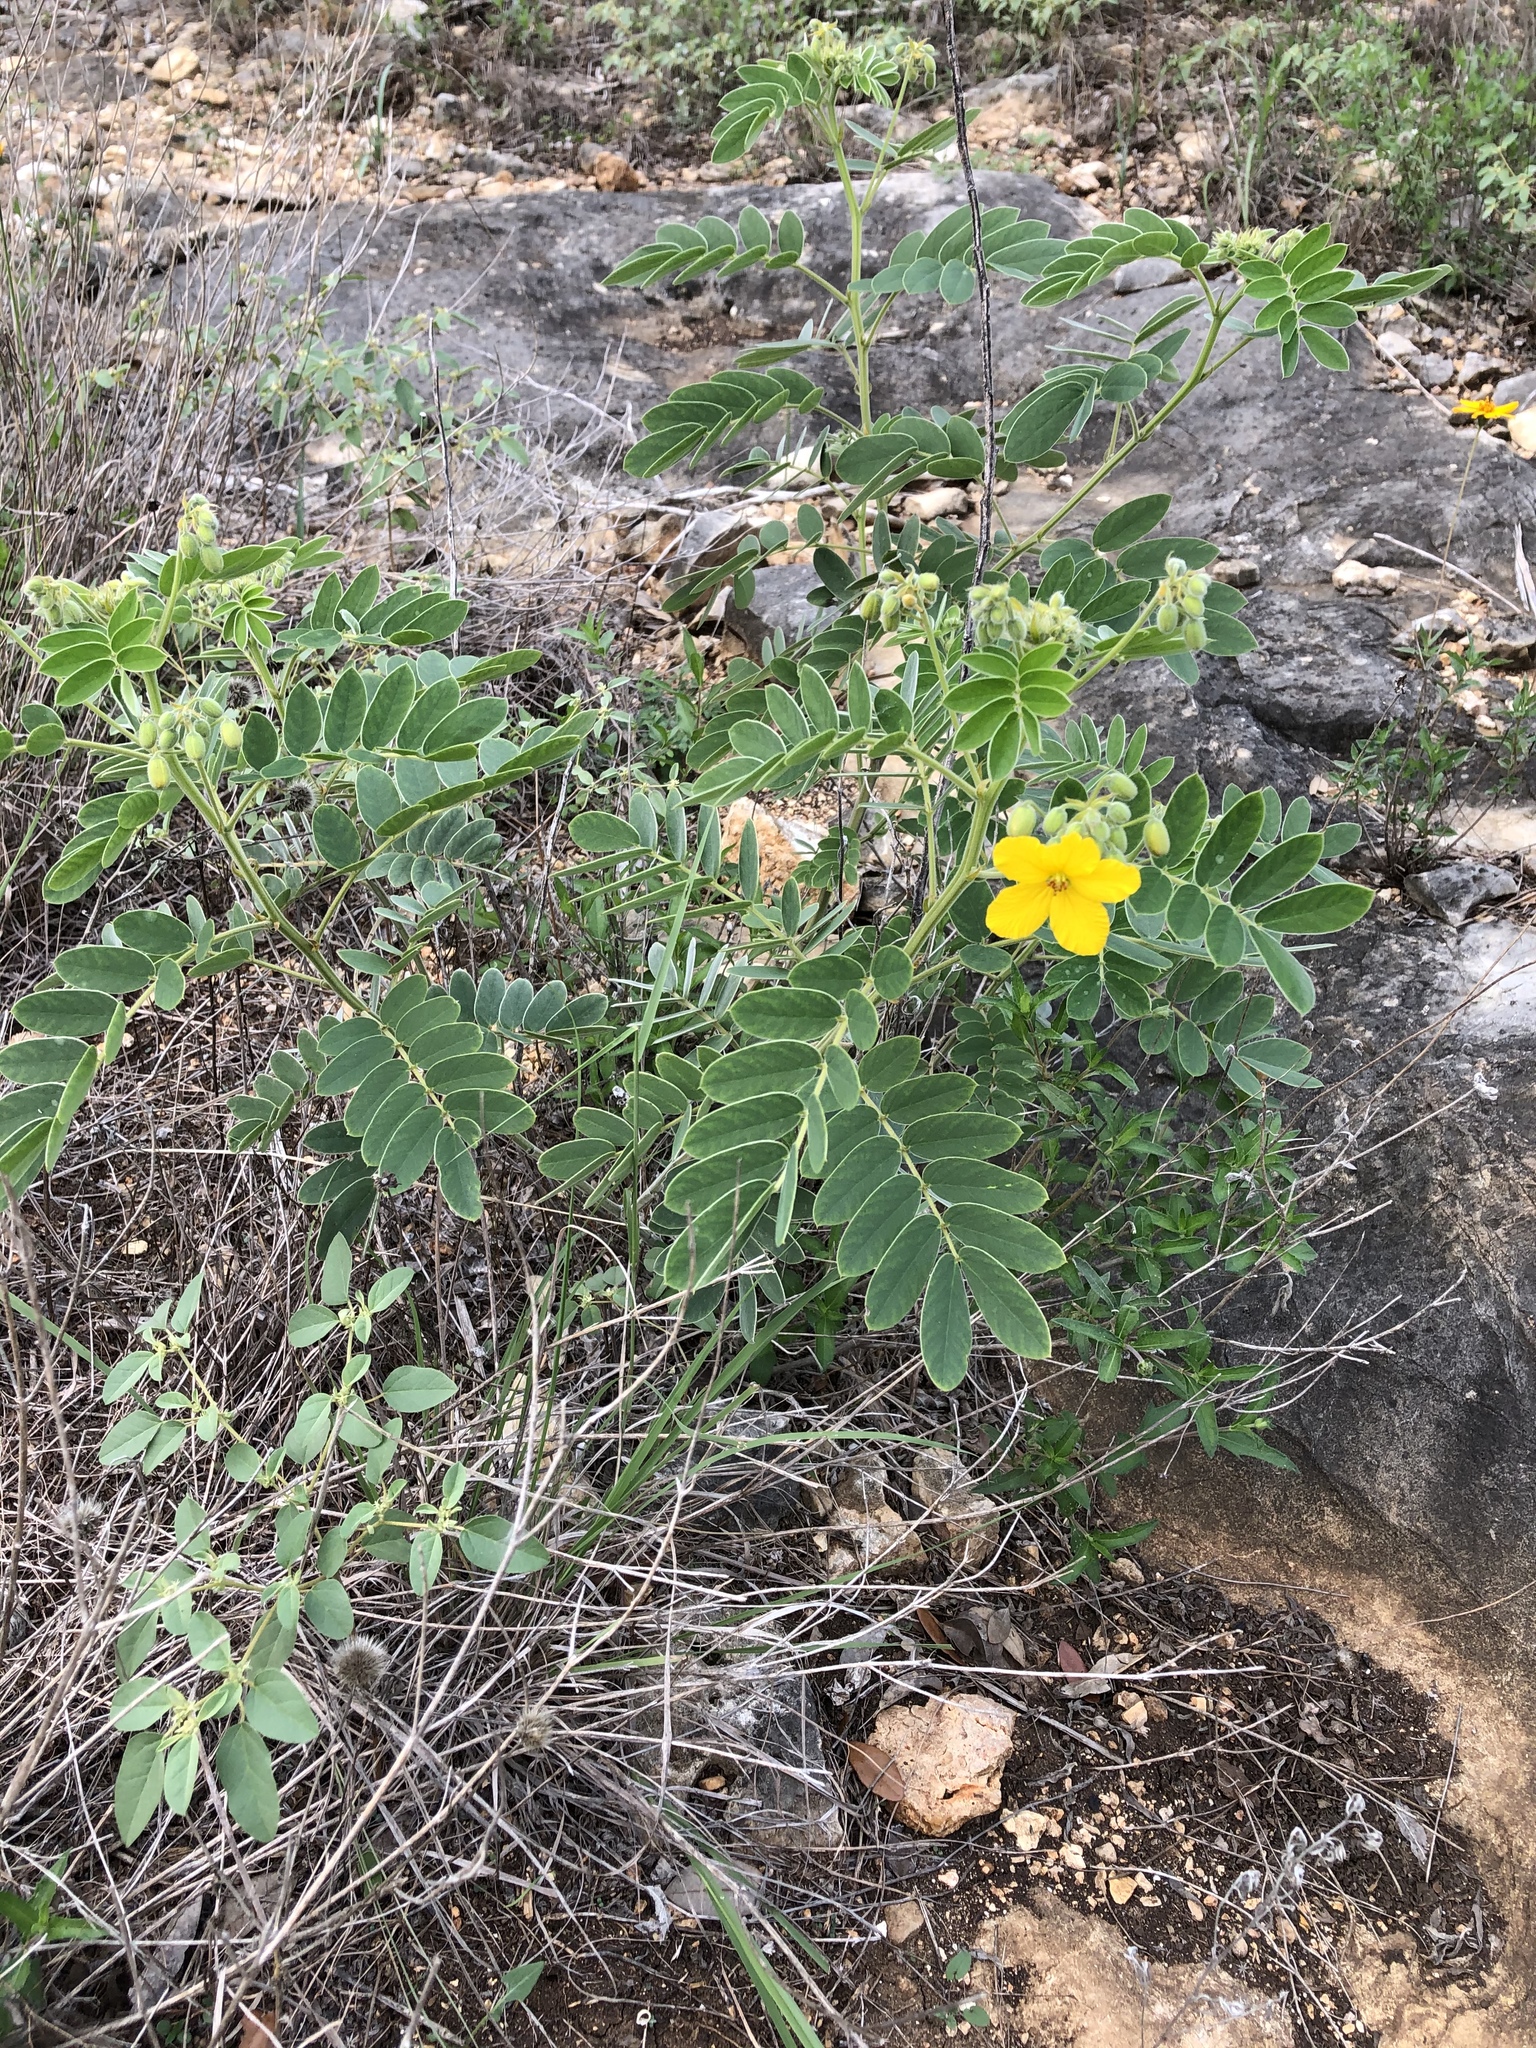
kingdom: Plantae
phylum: Tracheophyta
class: Magnoliopsida
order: Fabales
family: Fabaceae
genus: Senna
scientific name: Senna lindheimeriana
